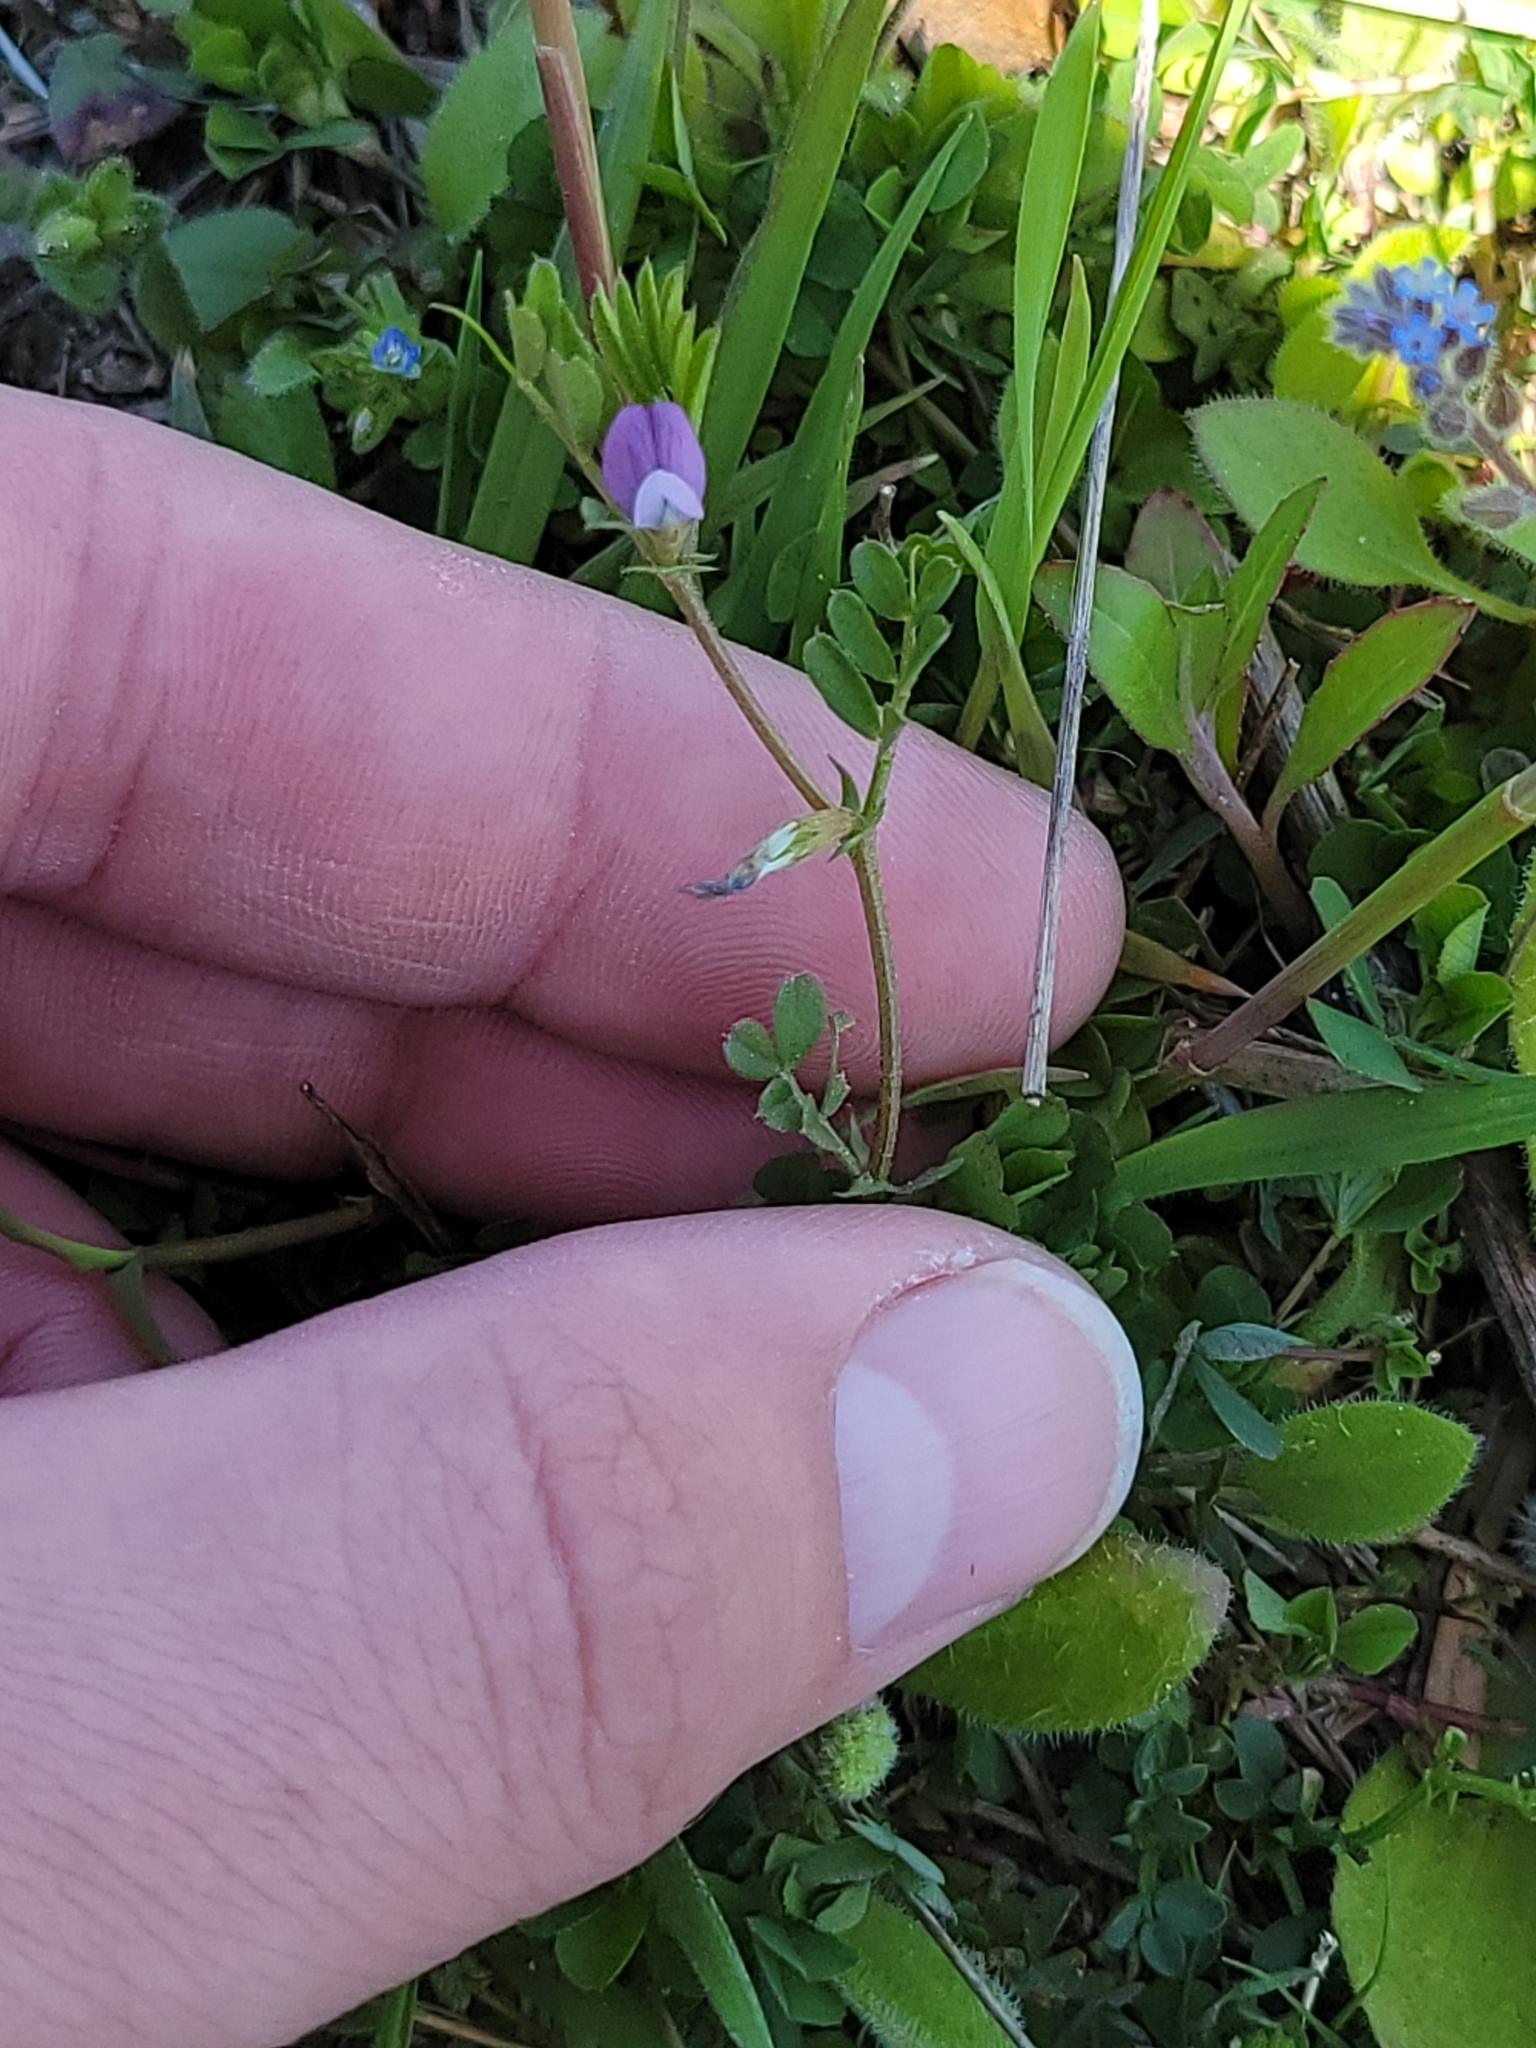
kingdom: Plantae
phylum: Tracheophyta
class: Magnoliopsida
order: Fabales
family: Fabaceae
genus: Vicia
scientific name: Vicia lathyroides
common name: Spring vetch
